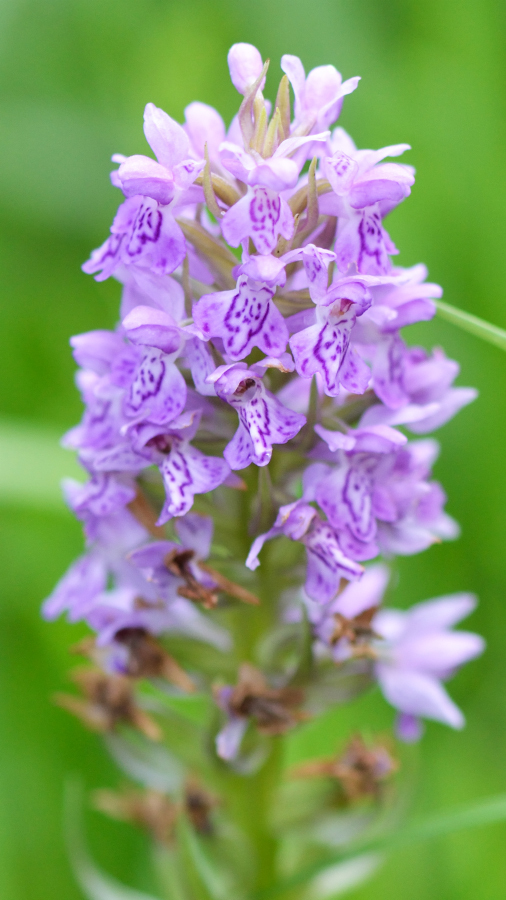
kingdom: Plantae
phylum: Tracheophyta
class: Liliopsida
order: Asparagales
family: Orchidaceae
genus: Dactylorhiza
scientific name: Dactylorhiza majalis
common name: Marsh orchid
